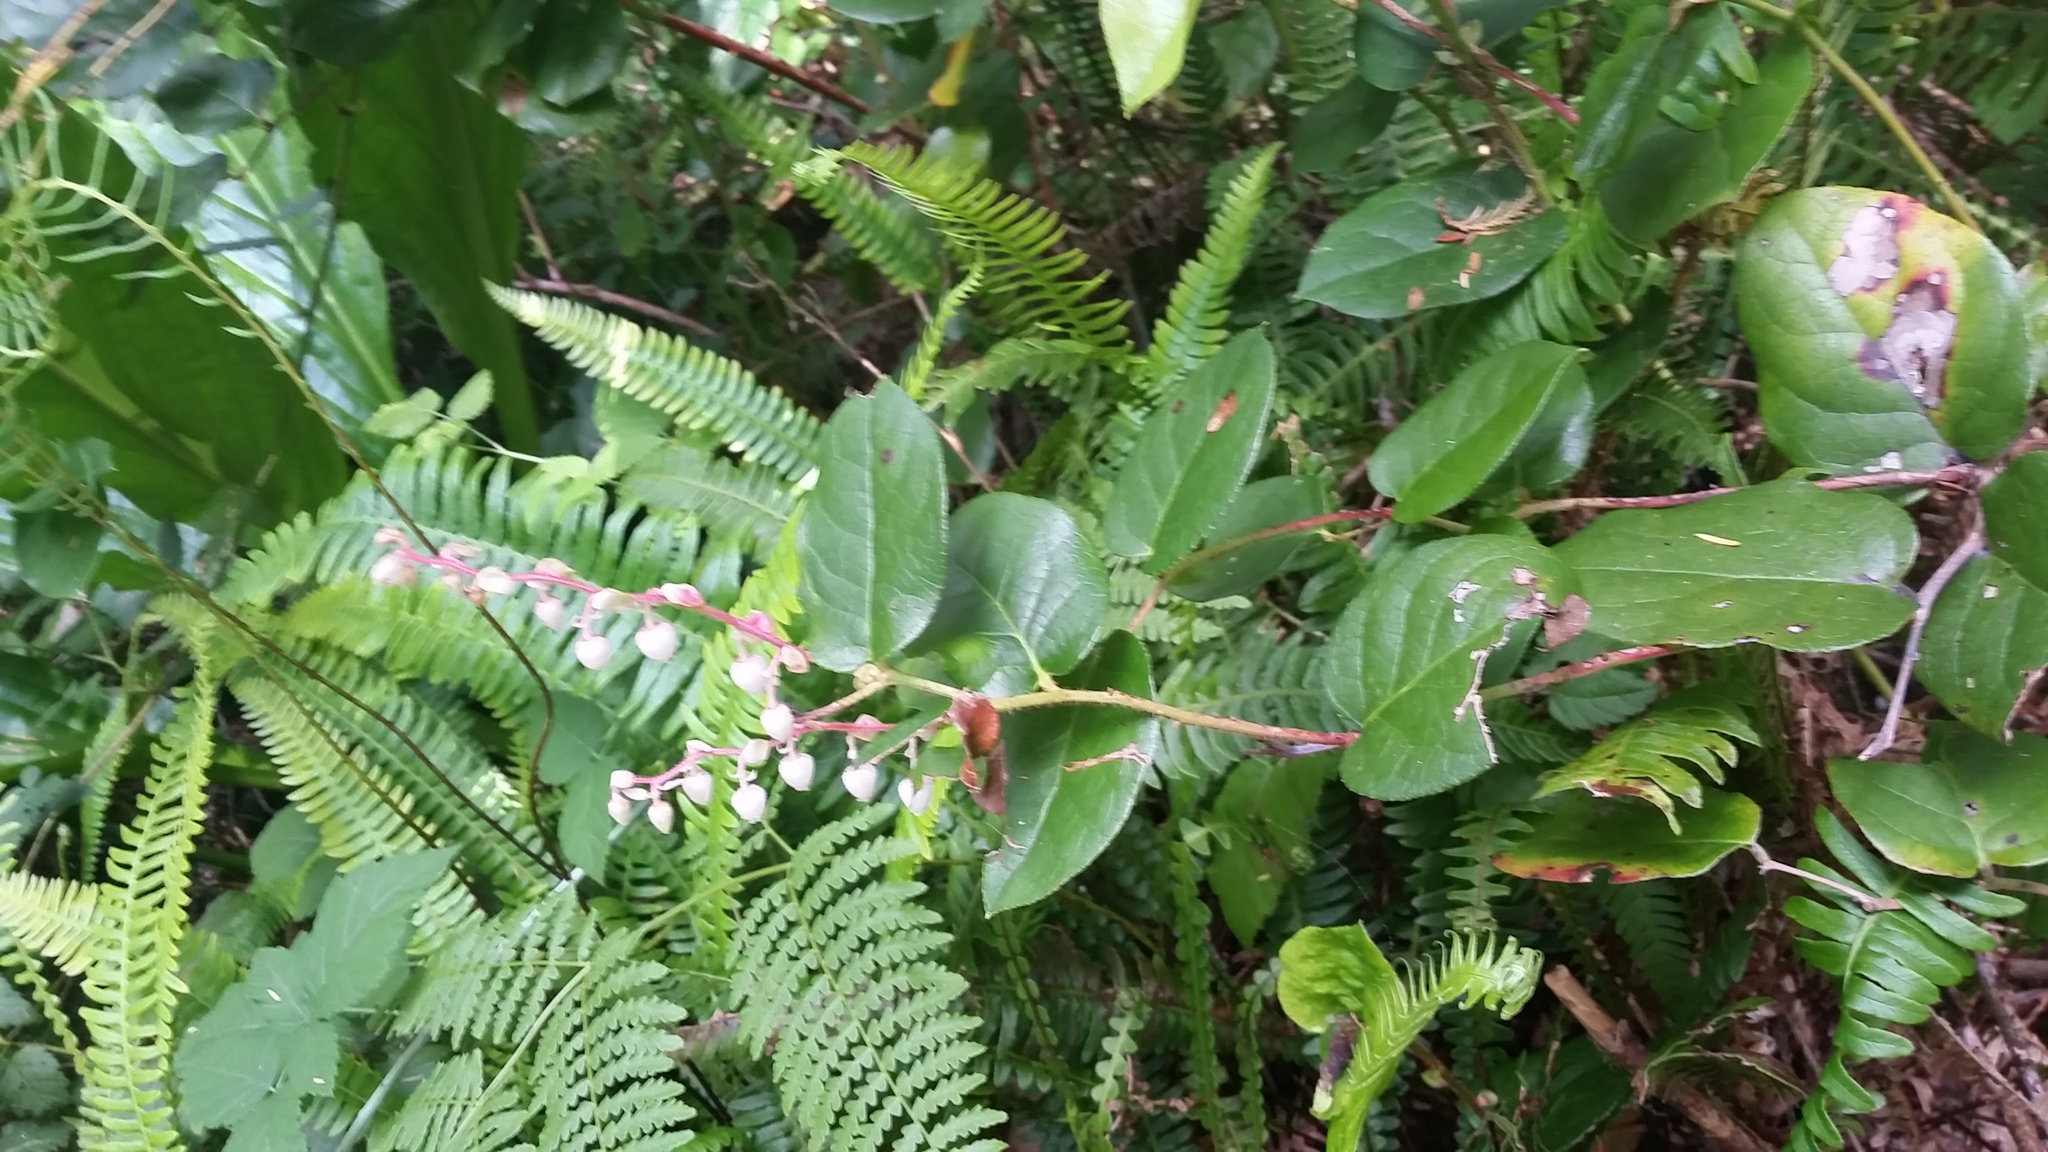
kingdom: Plantae
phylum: Tracheophyta
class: Magnoliopsida
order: Ericales
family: Ericaceae
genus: Gaultheria
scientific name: Gaultheria shallon
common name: Shallon
